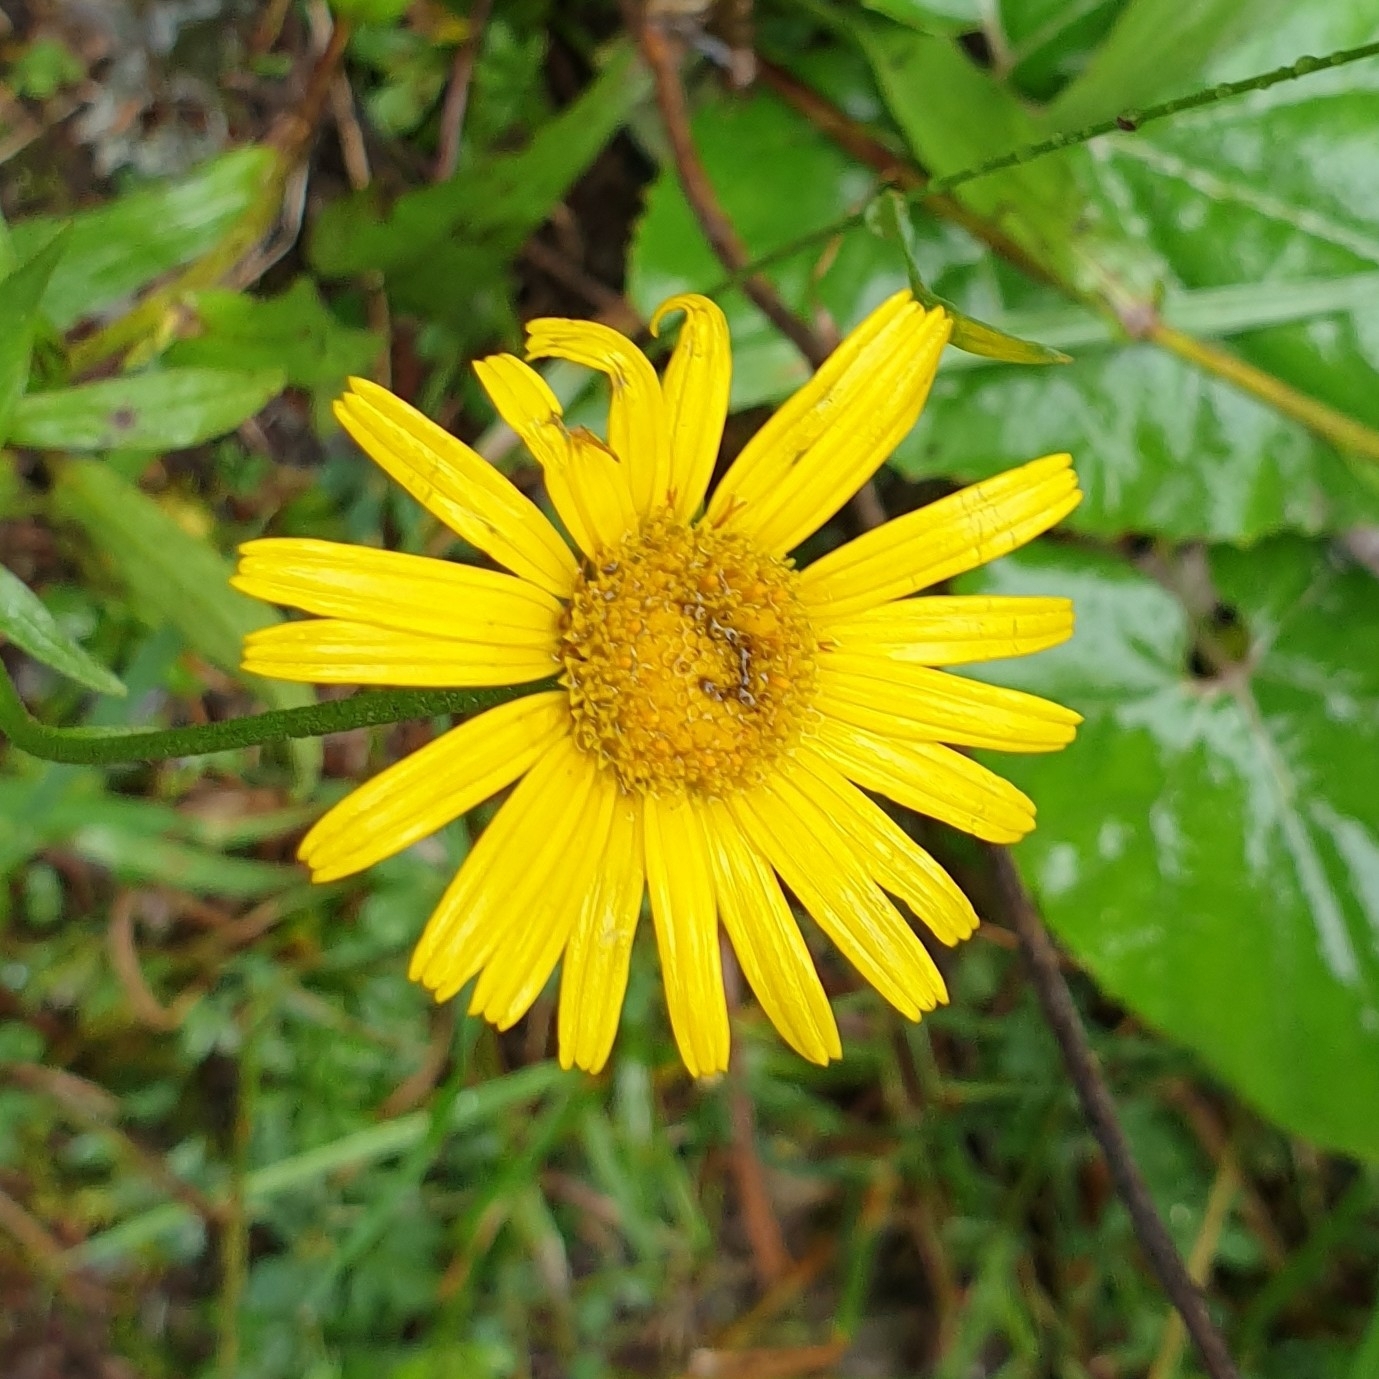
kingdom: Plantae
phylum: Tracheophyta
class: Magnoliopsida
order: Asterales
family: Asteraceae
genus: Buphthalmum
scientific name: Buphthalmum salicifolium
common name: Willow-leaved yellow-oxeye
